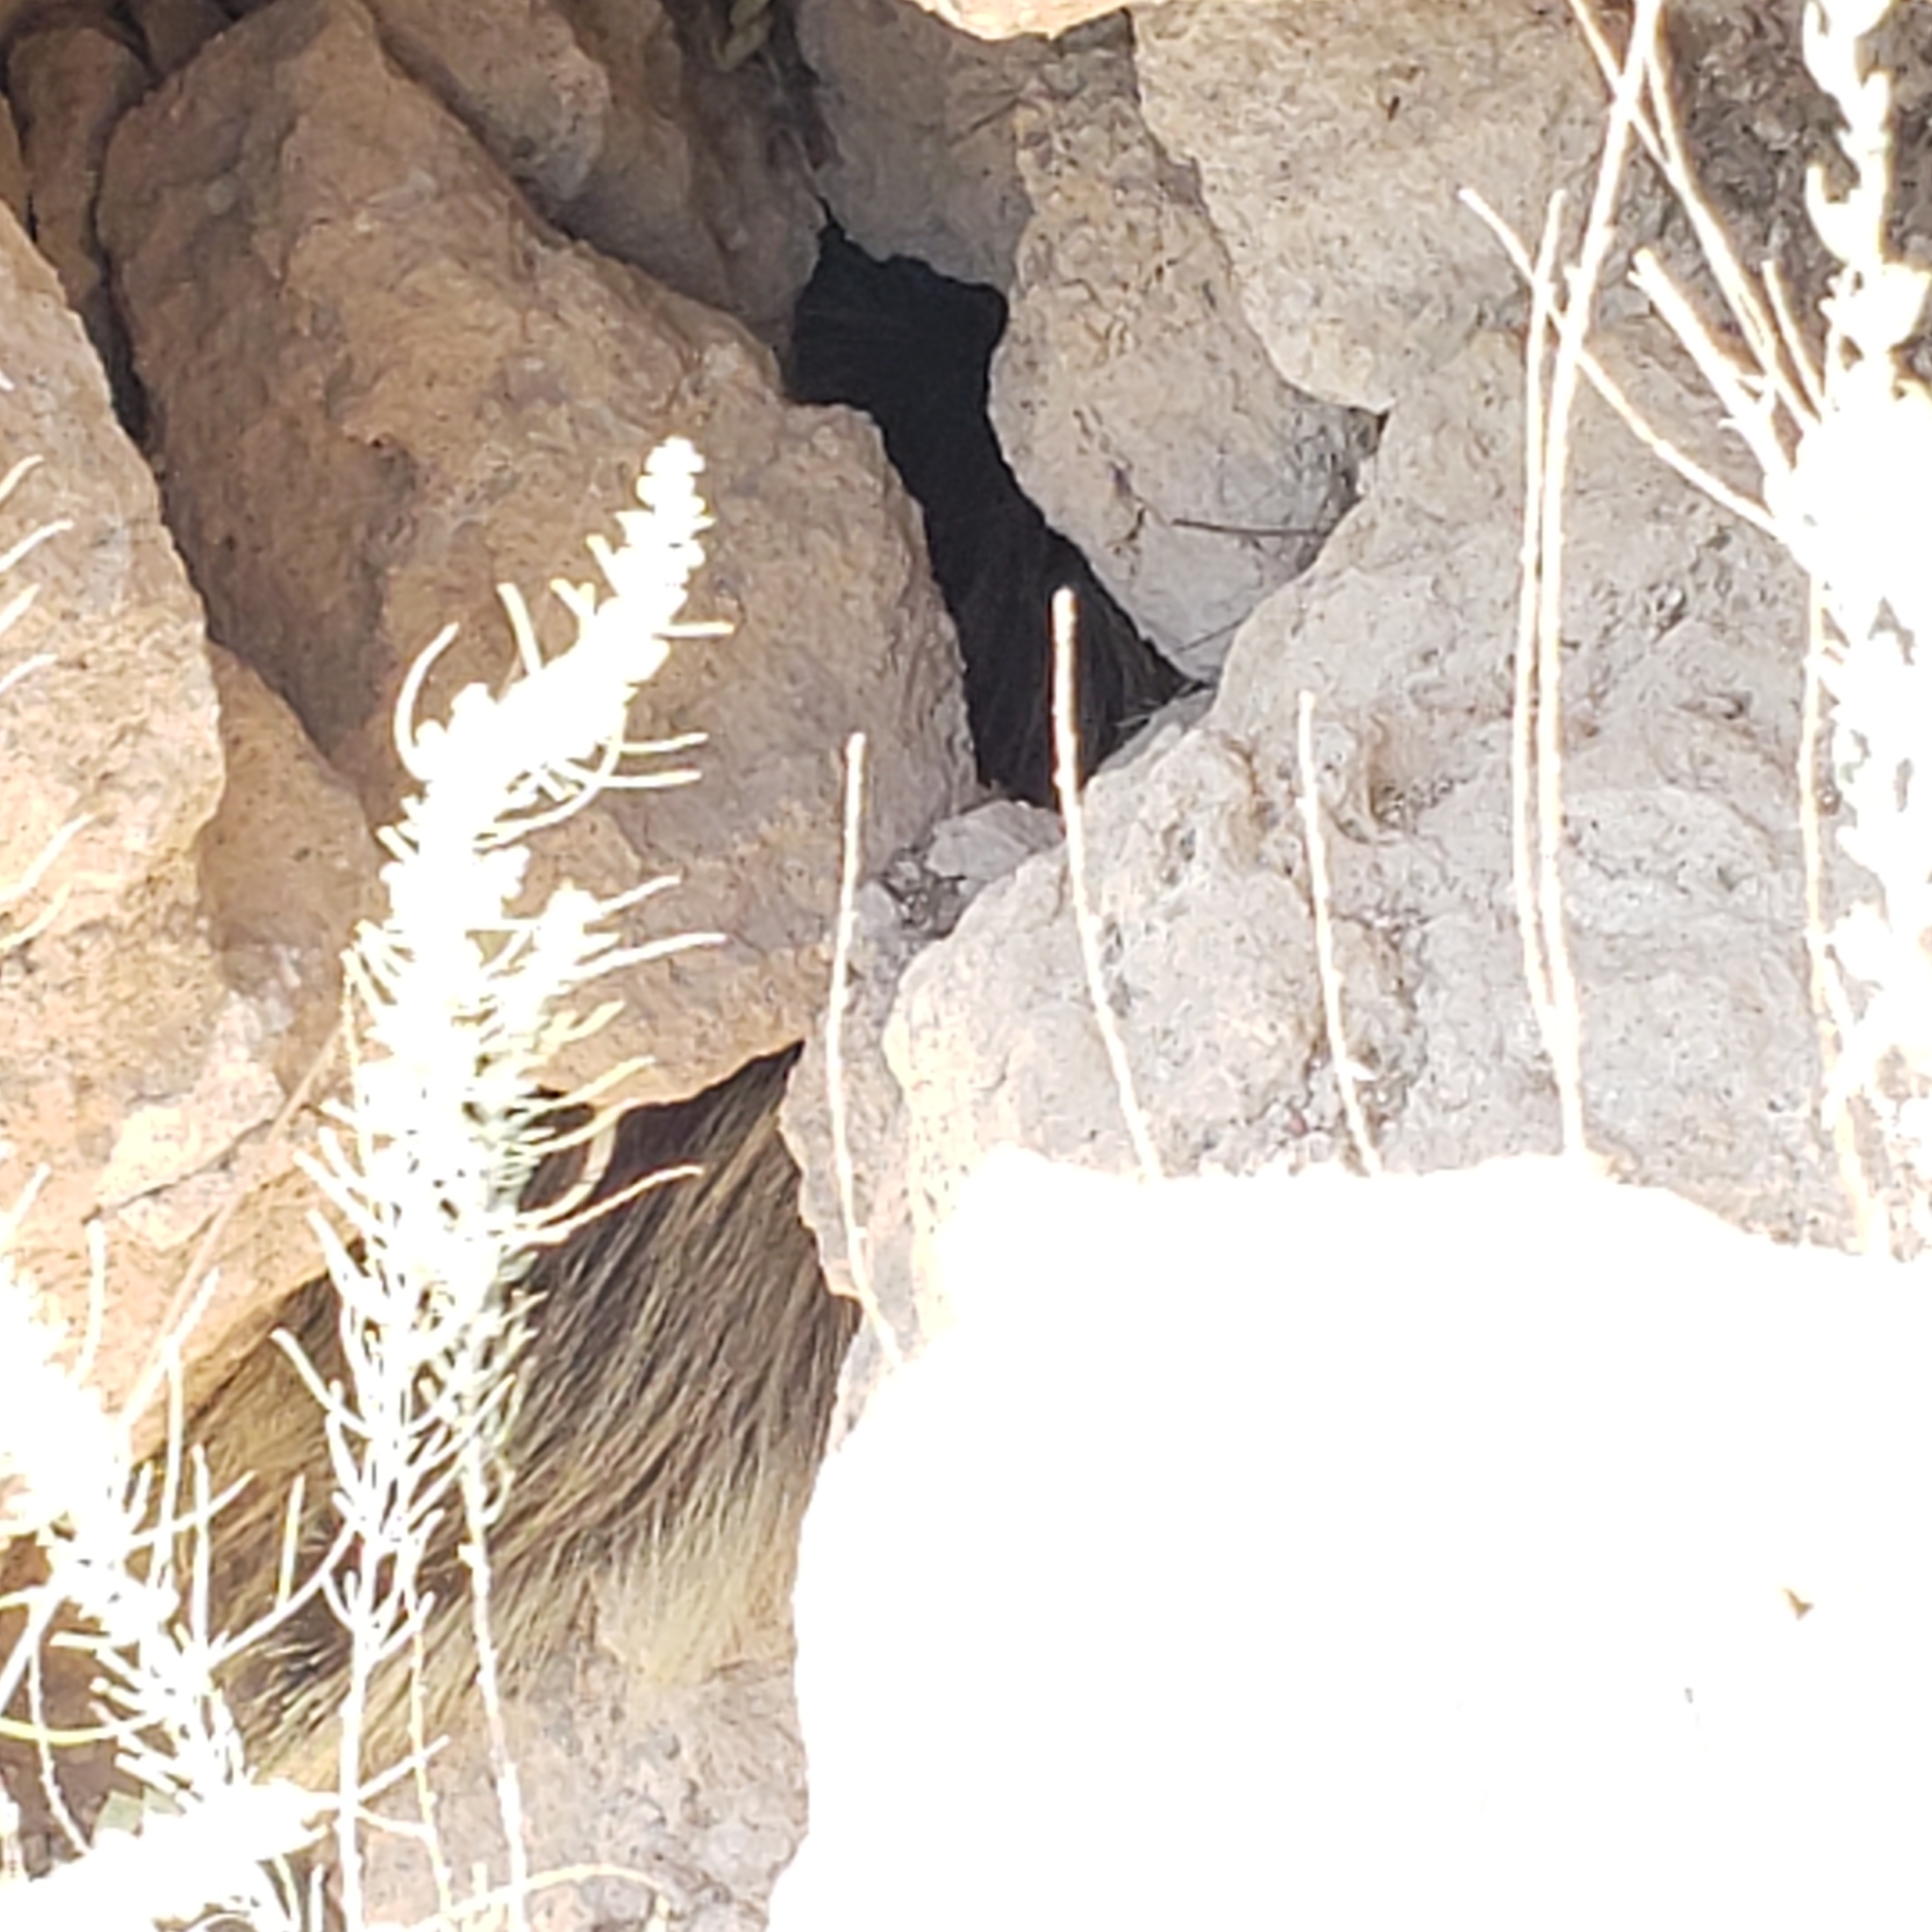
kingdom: Animalia
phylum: Chordata
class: Mammalia
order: Rodentia
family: Erethizontidae
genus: Erethizon
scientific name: Erethizon dorsatus
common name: North american porcupine
